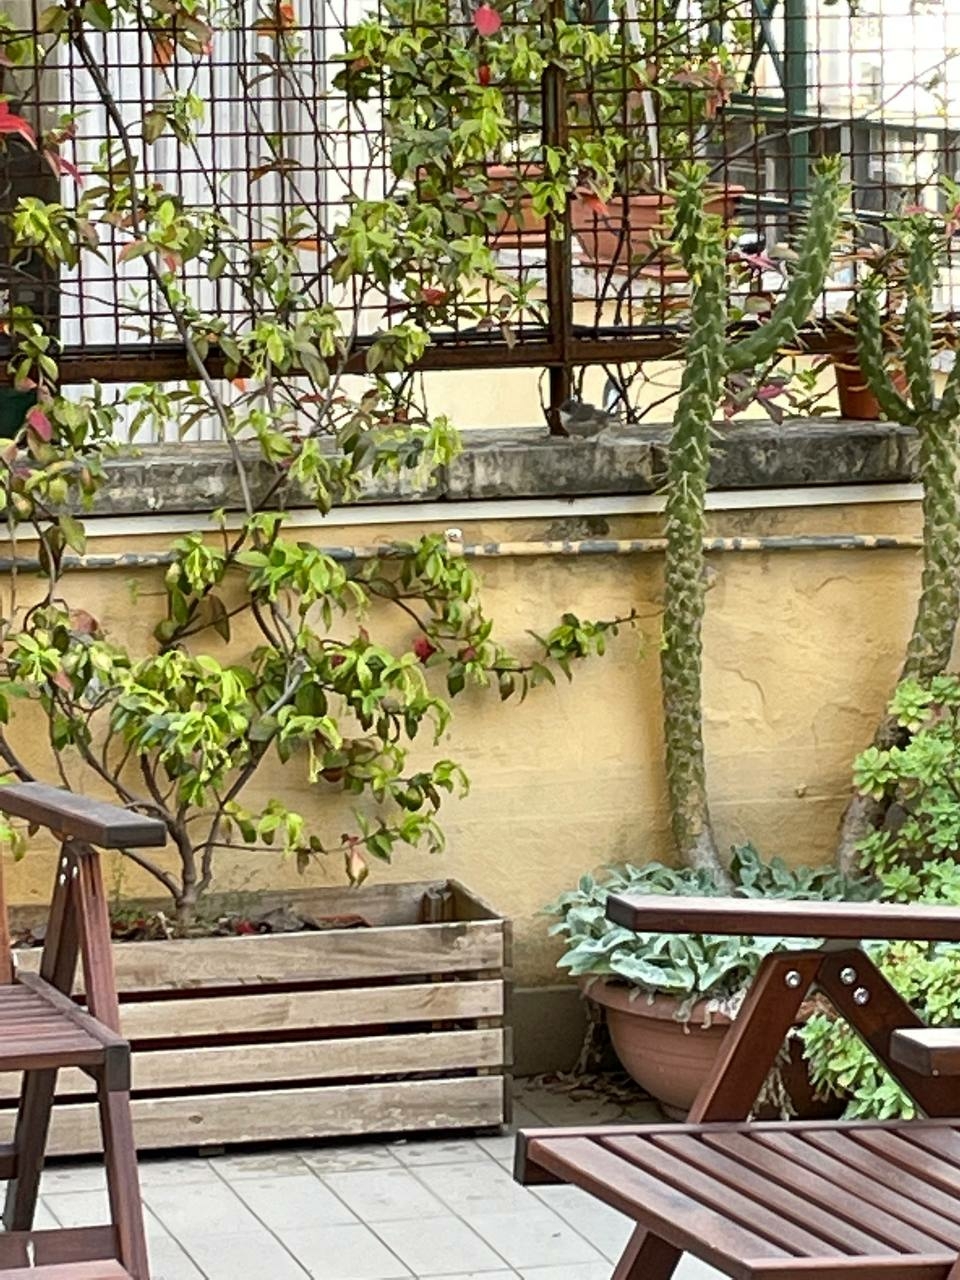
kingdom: Animalia
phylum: Chordata
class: Aves
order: Passeriformes
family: Sylviidae
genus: Curruca
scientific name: Curruca melanocephala
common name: Sardinian warbler
